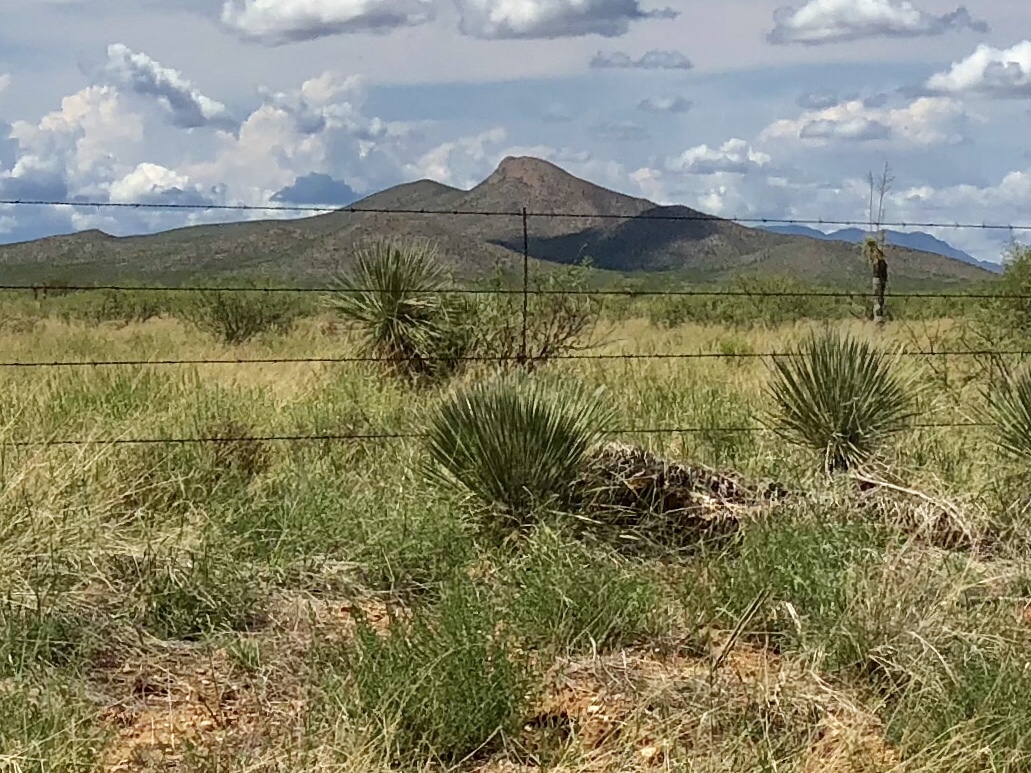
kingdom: Plantae
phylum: Tracheophyta
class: Liliopsida
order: Asparagales
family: Asparagaceae
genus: Yucca
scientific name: Yucca elata
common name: Palmella
